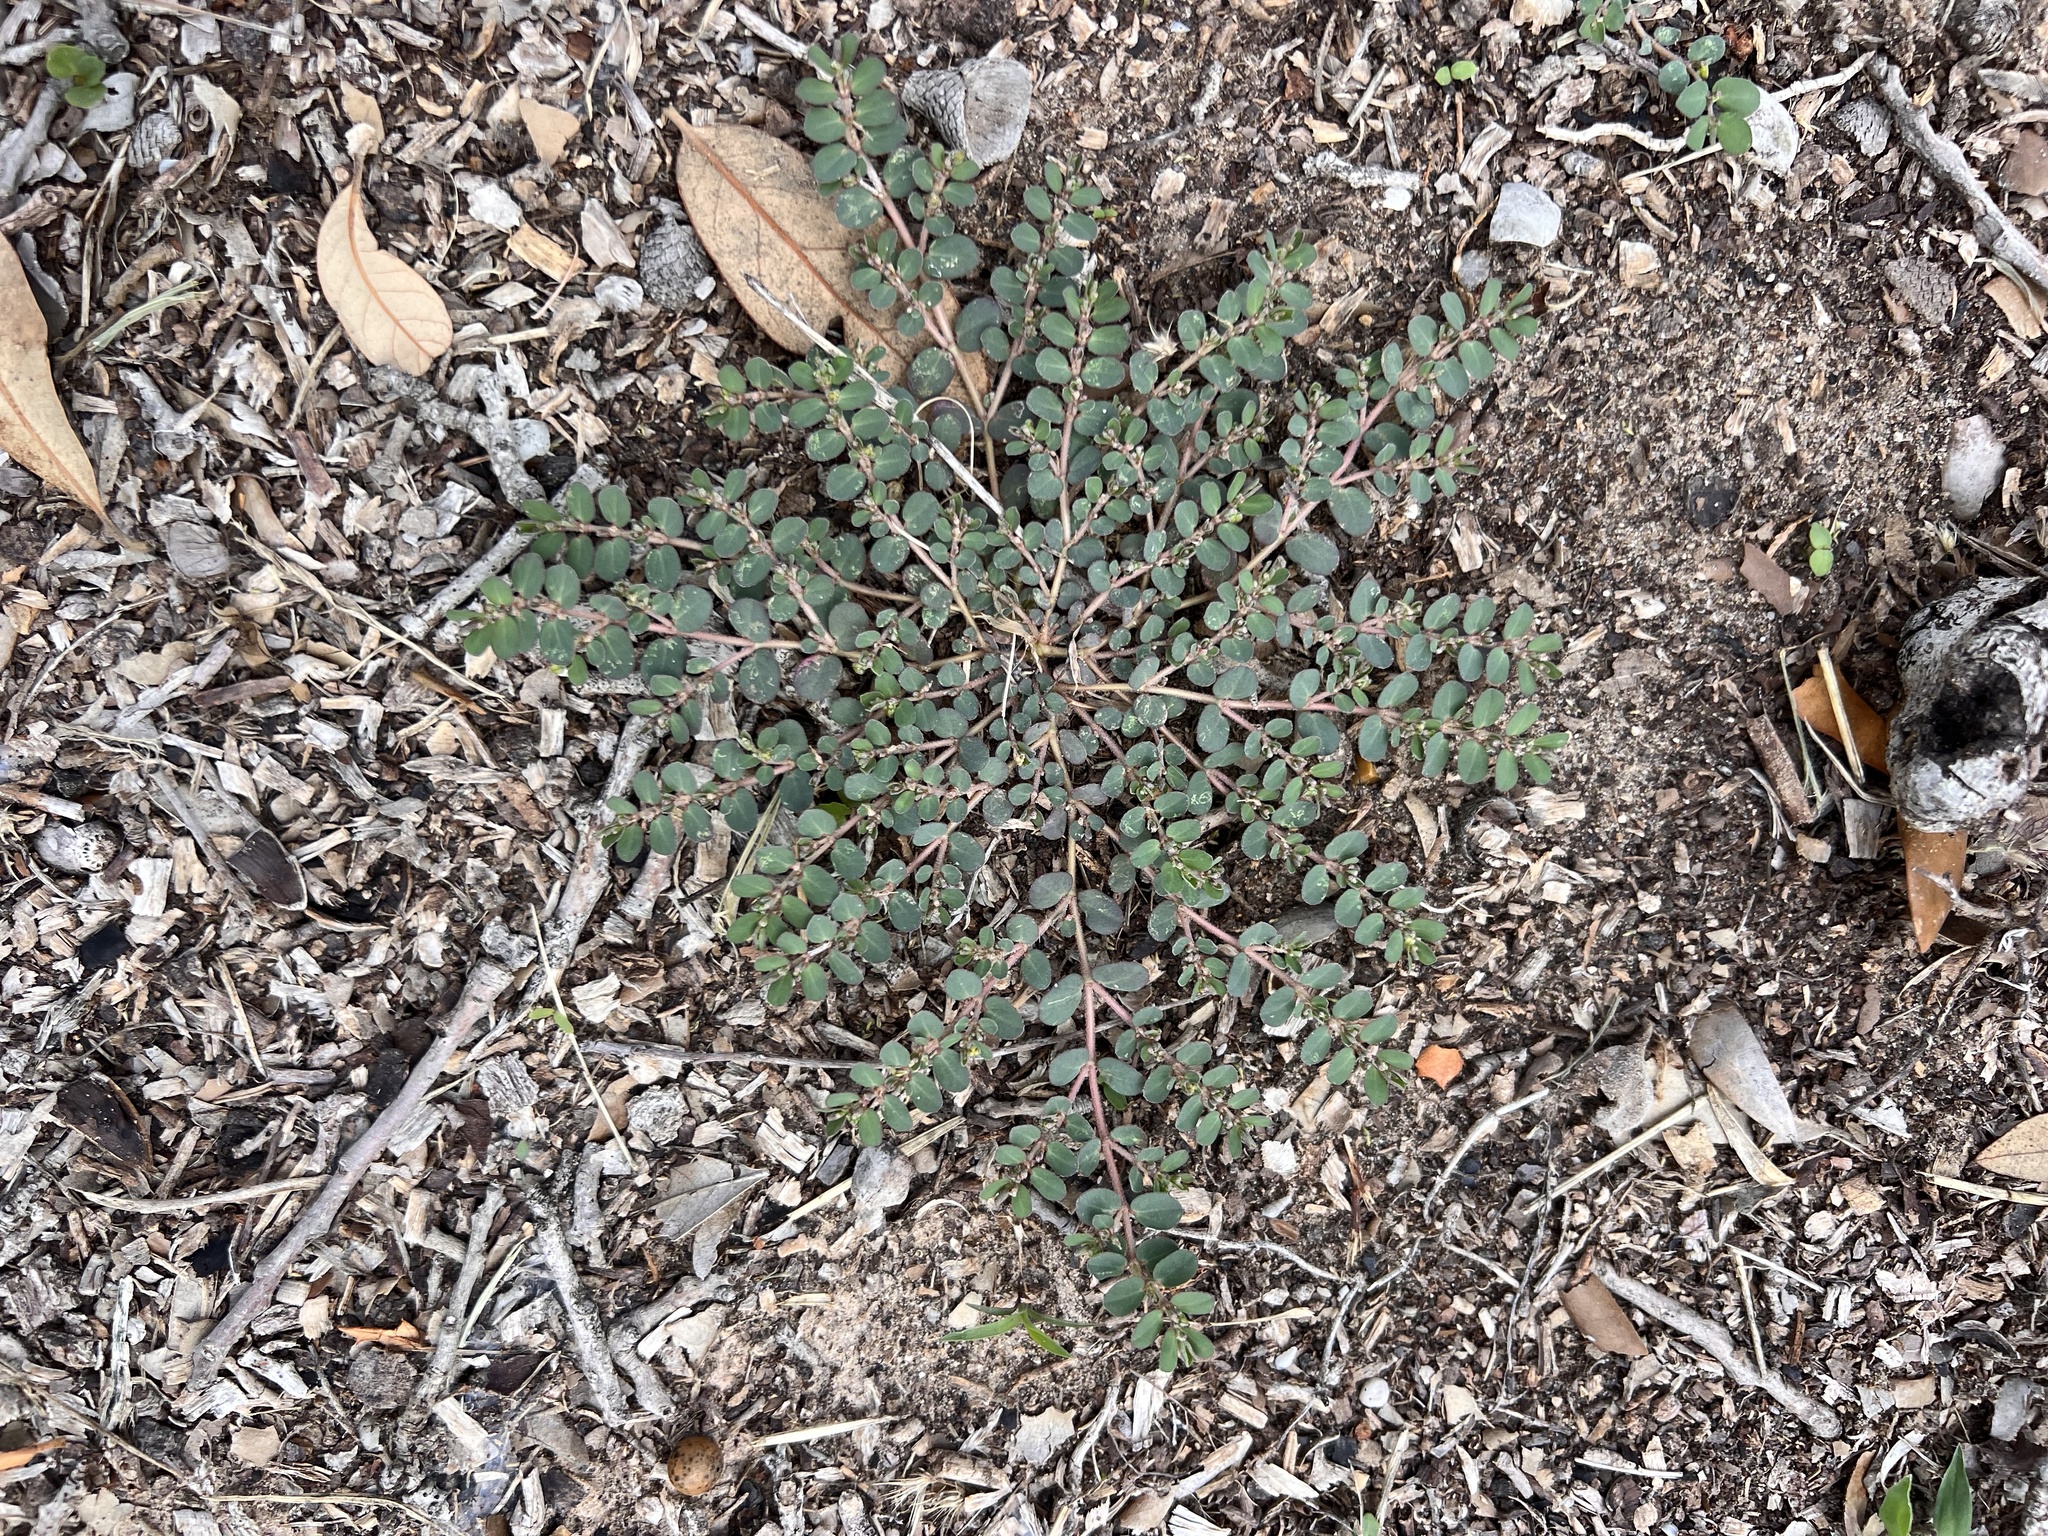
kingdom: Plantae
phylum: Tracheophyta
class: Magnoliopsida
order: Malpighiales
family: Euphorbiaceae
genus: Euphorbia
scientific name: Euphorbia prostrata
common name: Prostrate sandmat
